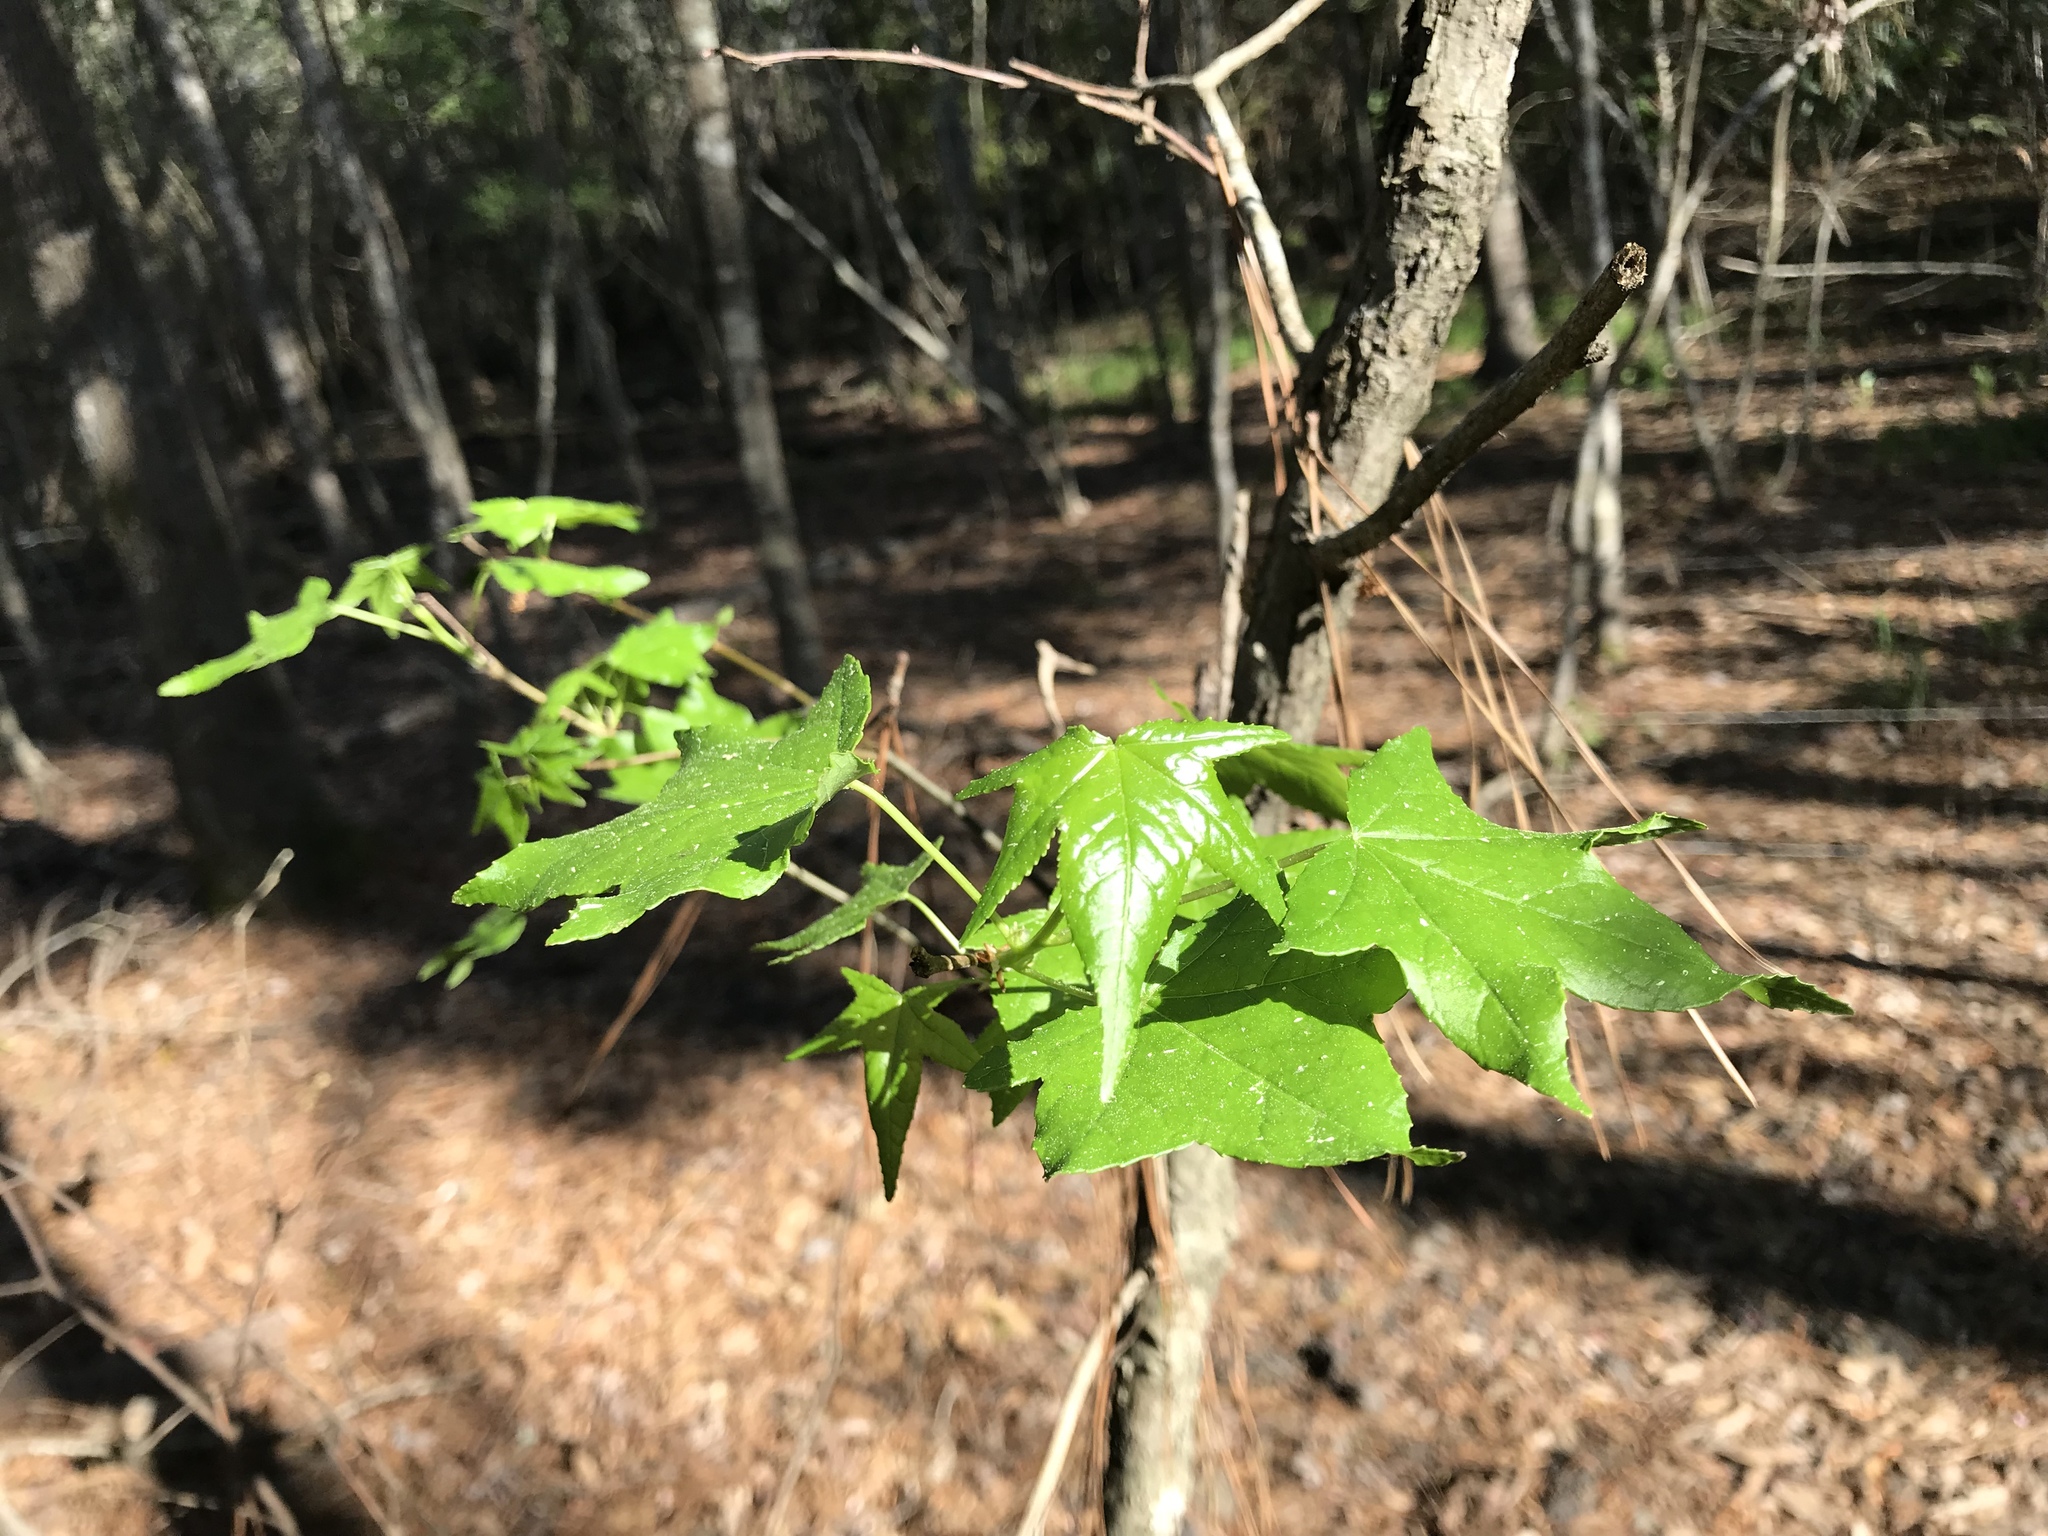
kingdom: Plantae
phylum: Tracheophyta
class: Magnoliopsida
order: Saxifragales
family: Altingiaceae
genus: Liquidambar
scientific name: Liquidambar styraciflua
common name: Sweet gum
